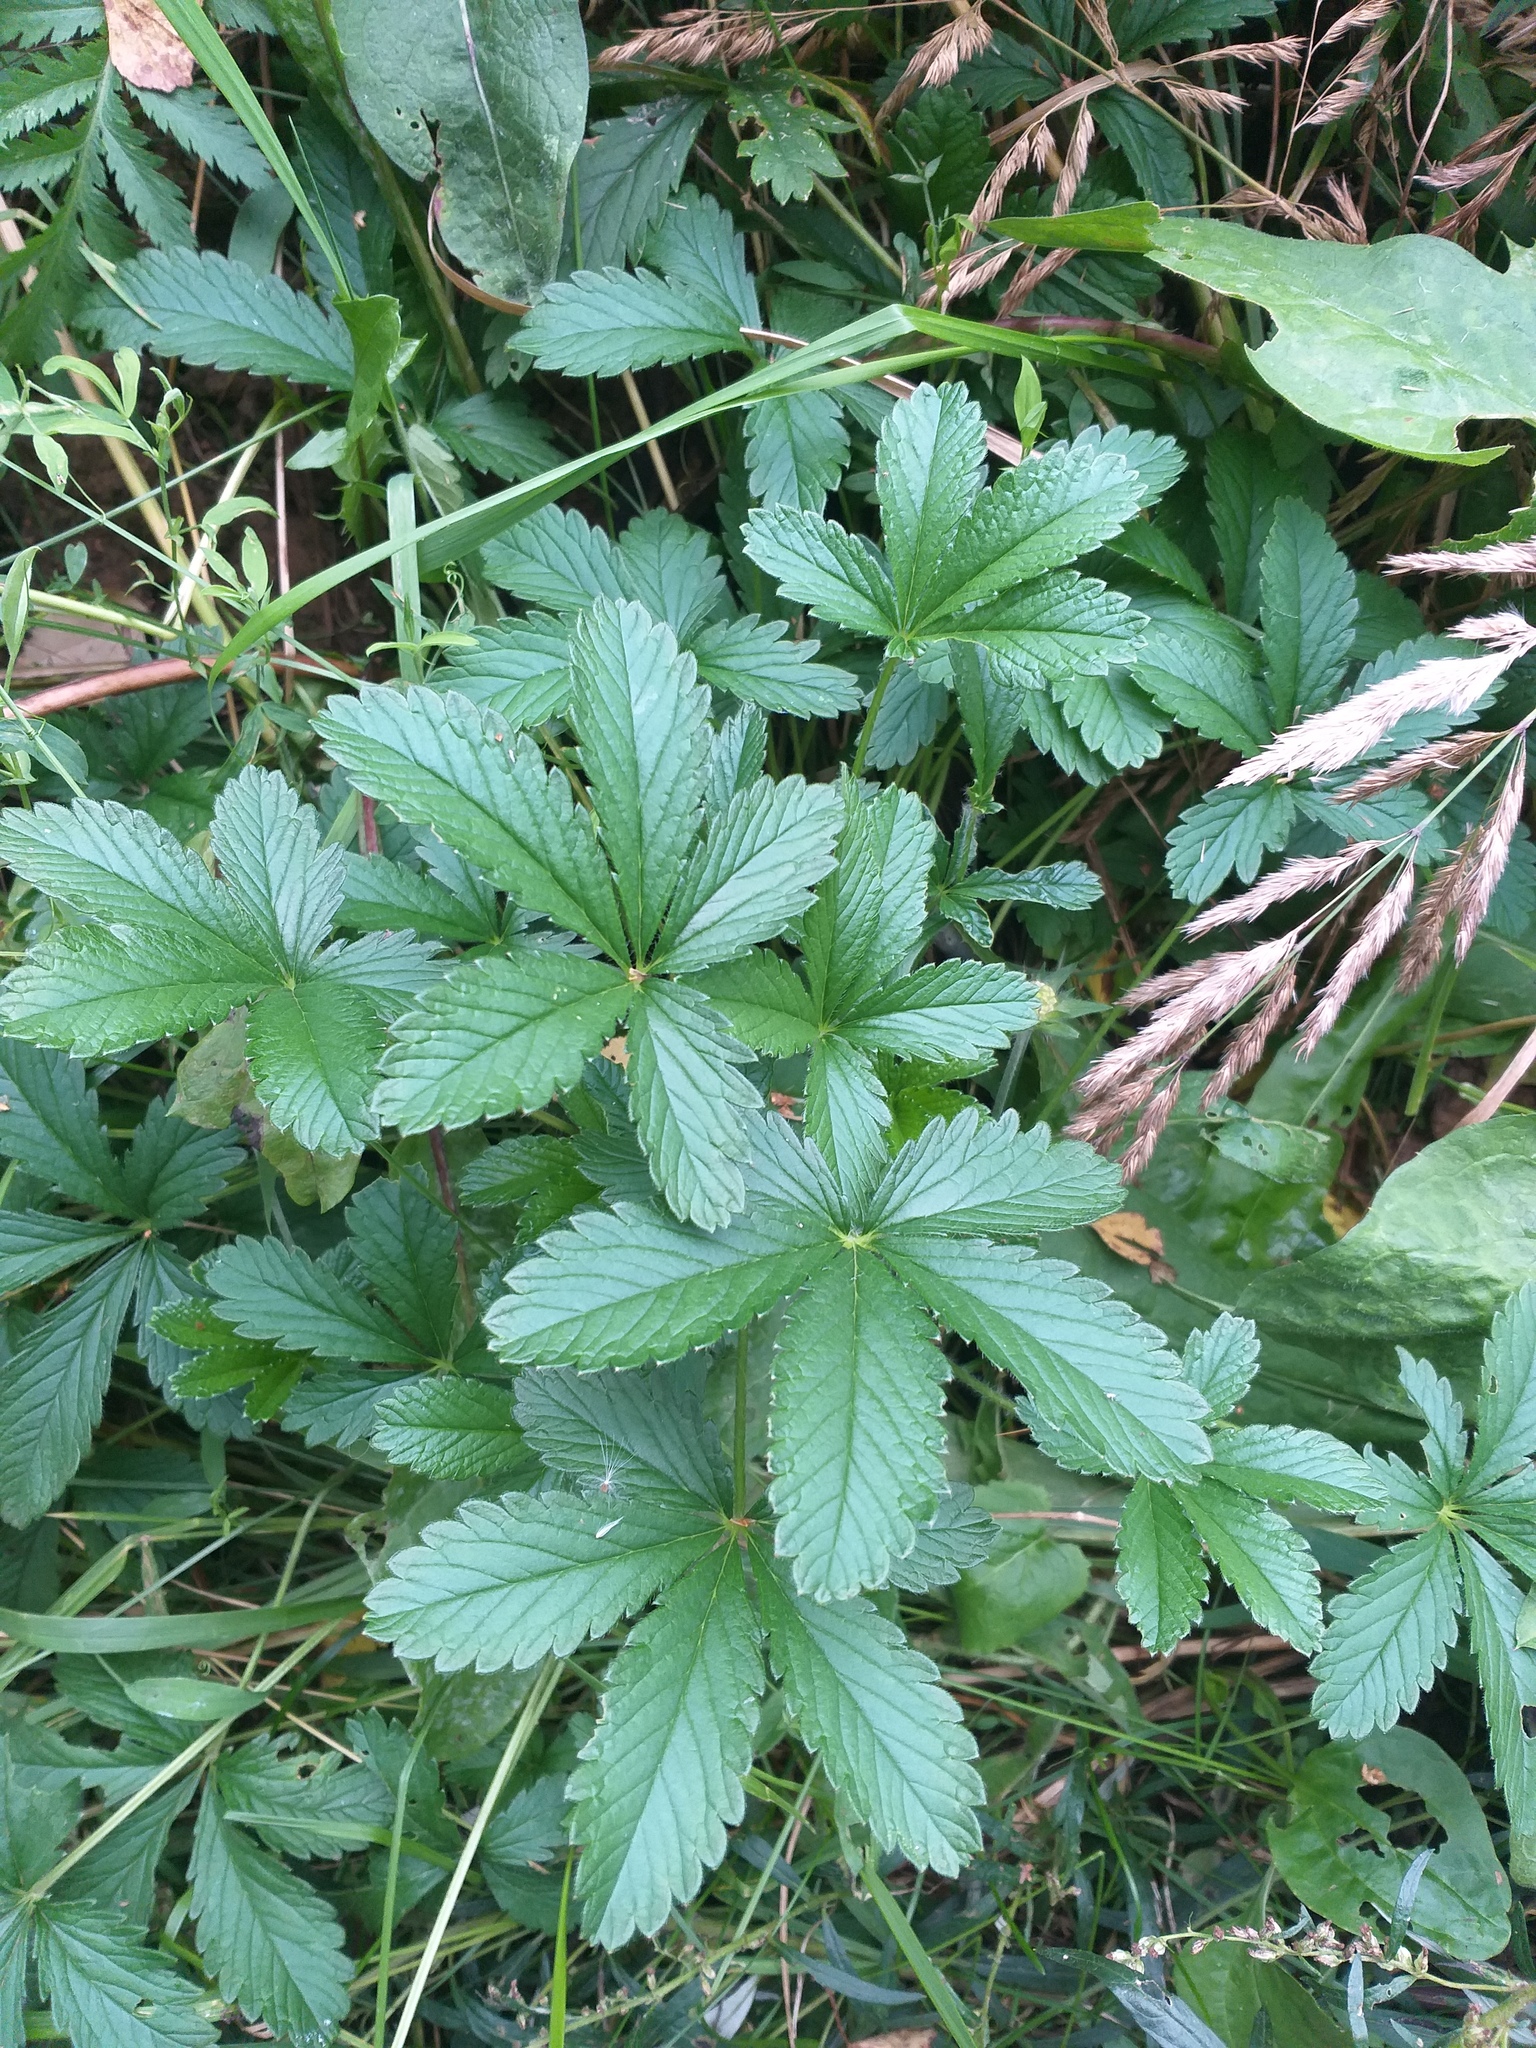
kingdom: Plantae
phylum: Tracheophyta
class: Magnoliopsida
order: Rosales
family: Rosaceae
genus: Potentilla
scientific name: Potentilla thuringiaca
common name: European cinquefoil
